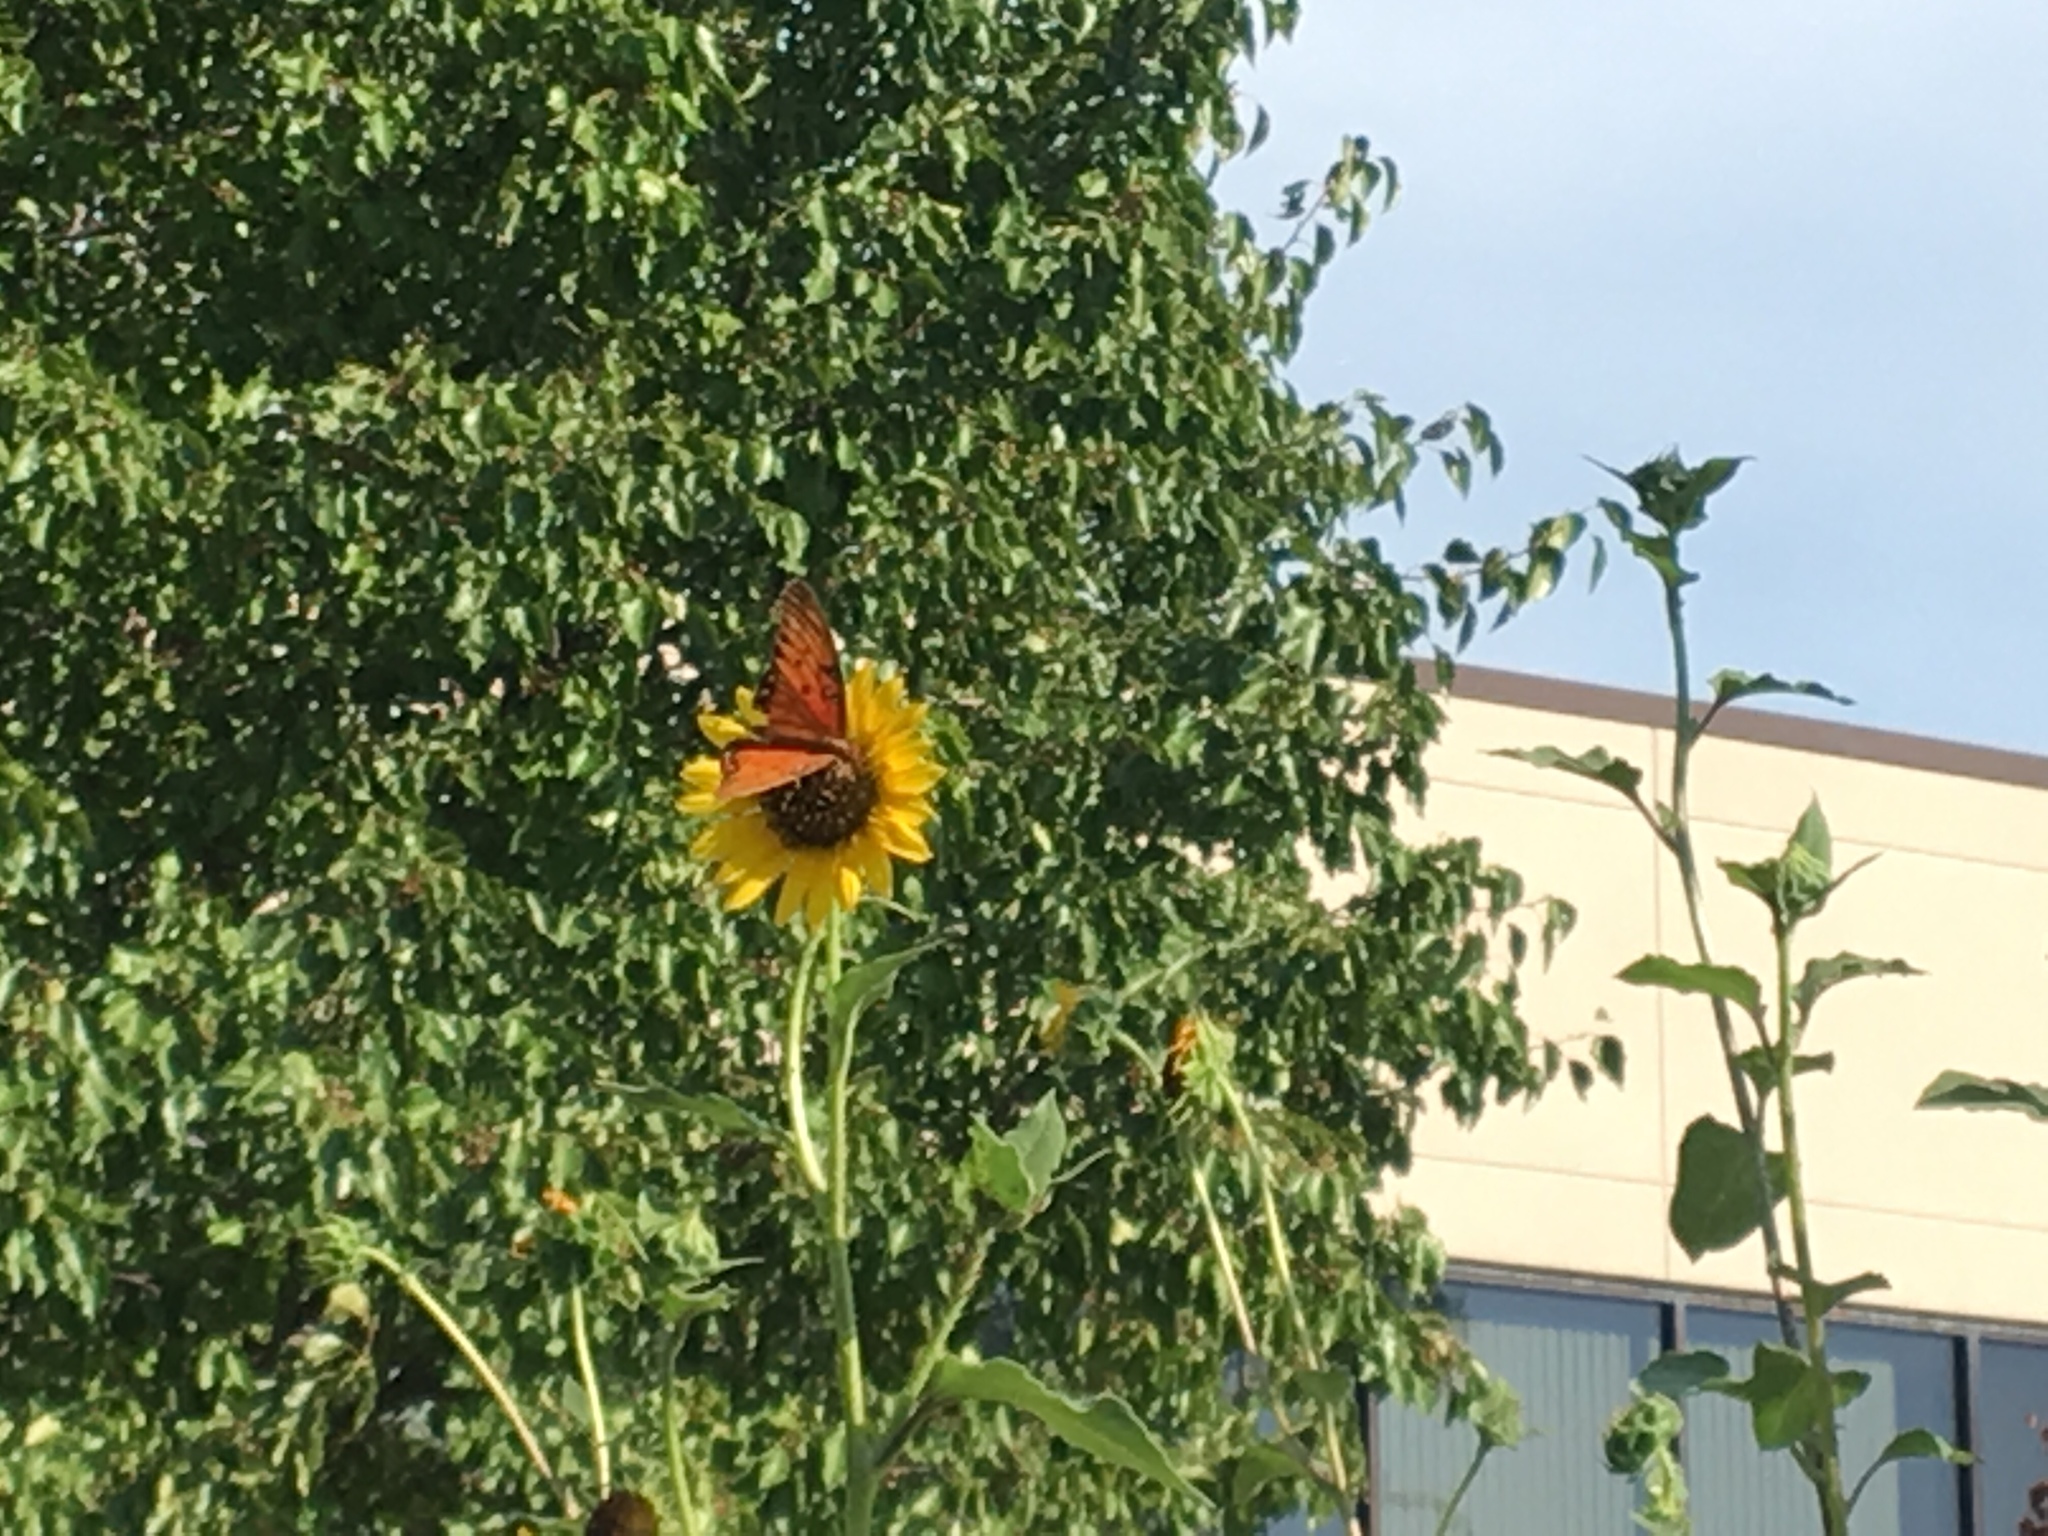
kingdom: Animalia
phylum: Arthropoda
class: Insecta
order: Lepidoptera
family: Nymphalidae
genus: Dione
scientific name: Dione vanillae
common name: Gulf fritillary
